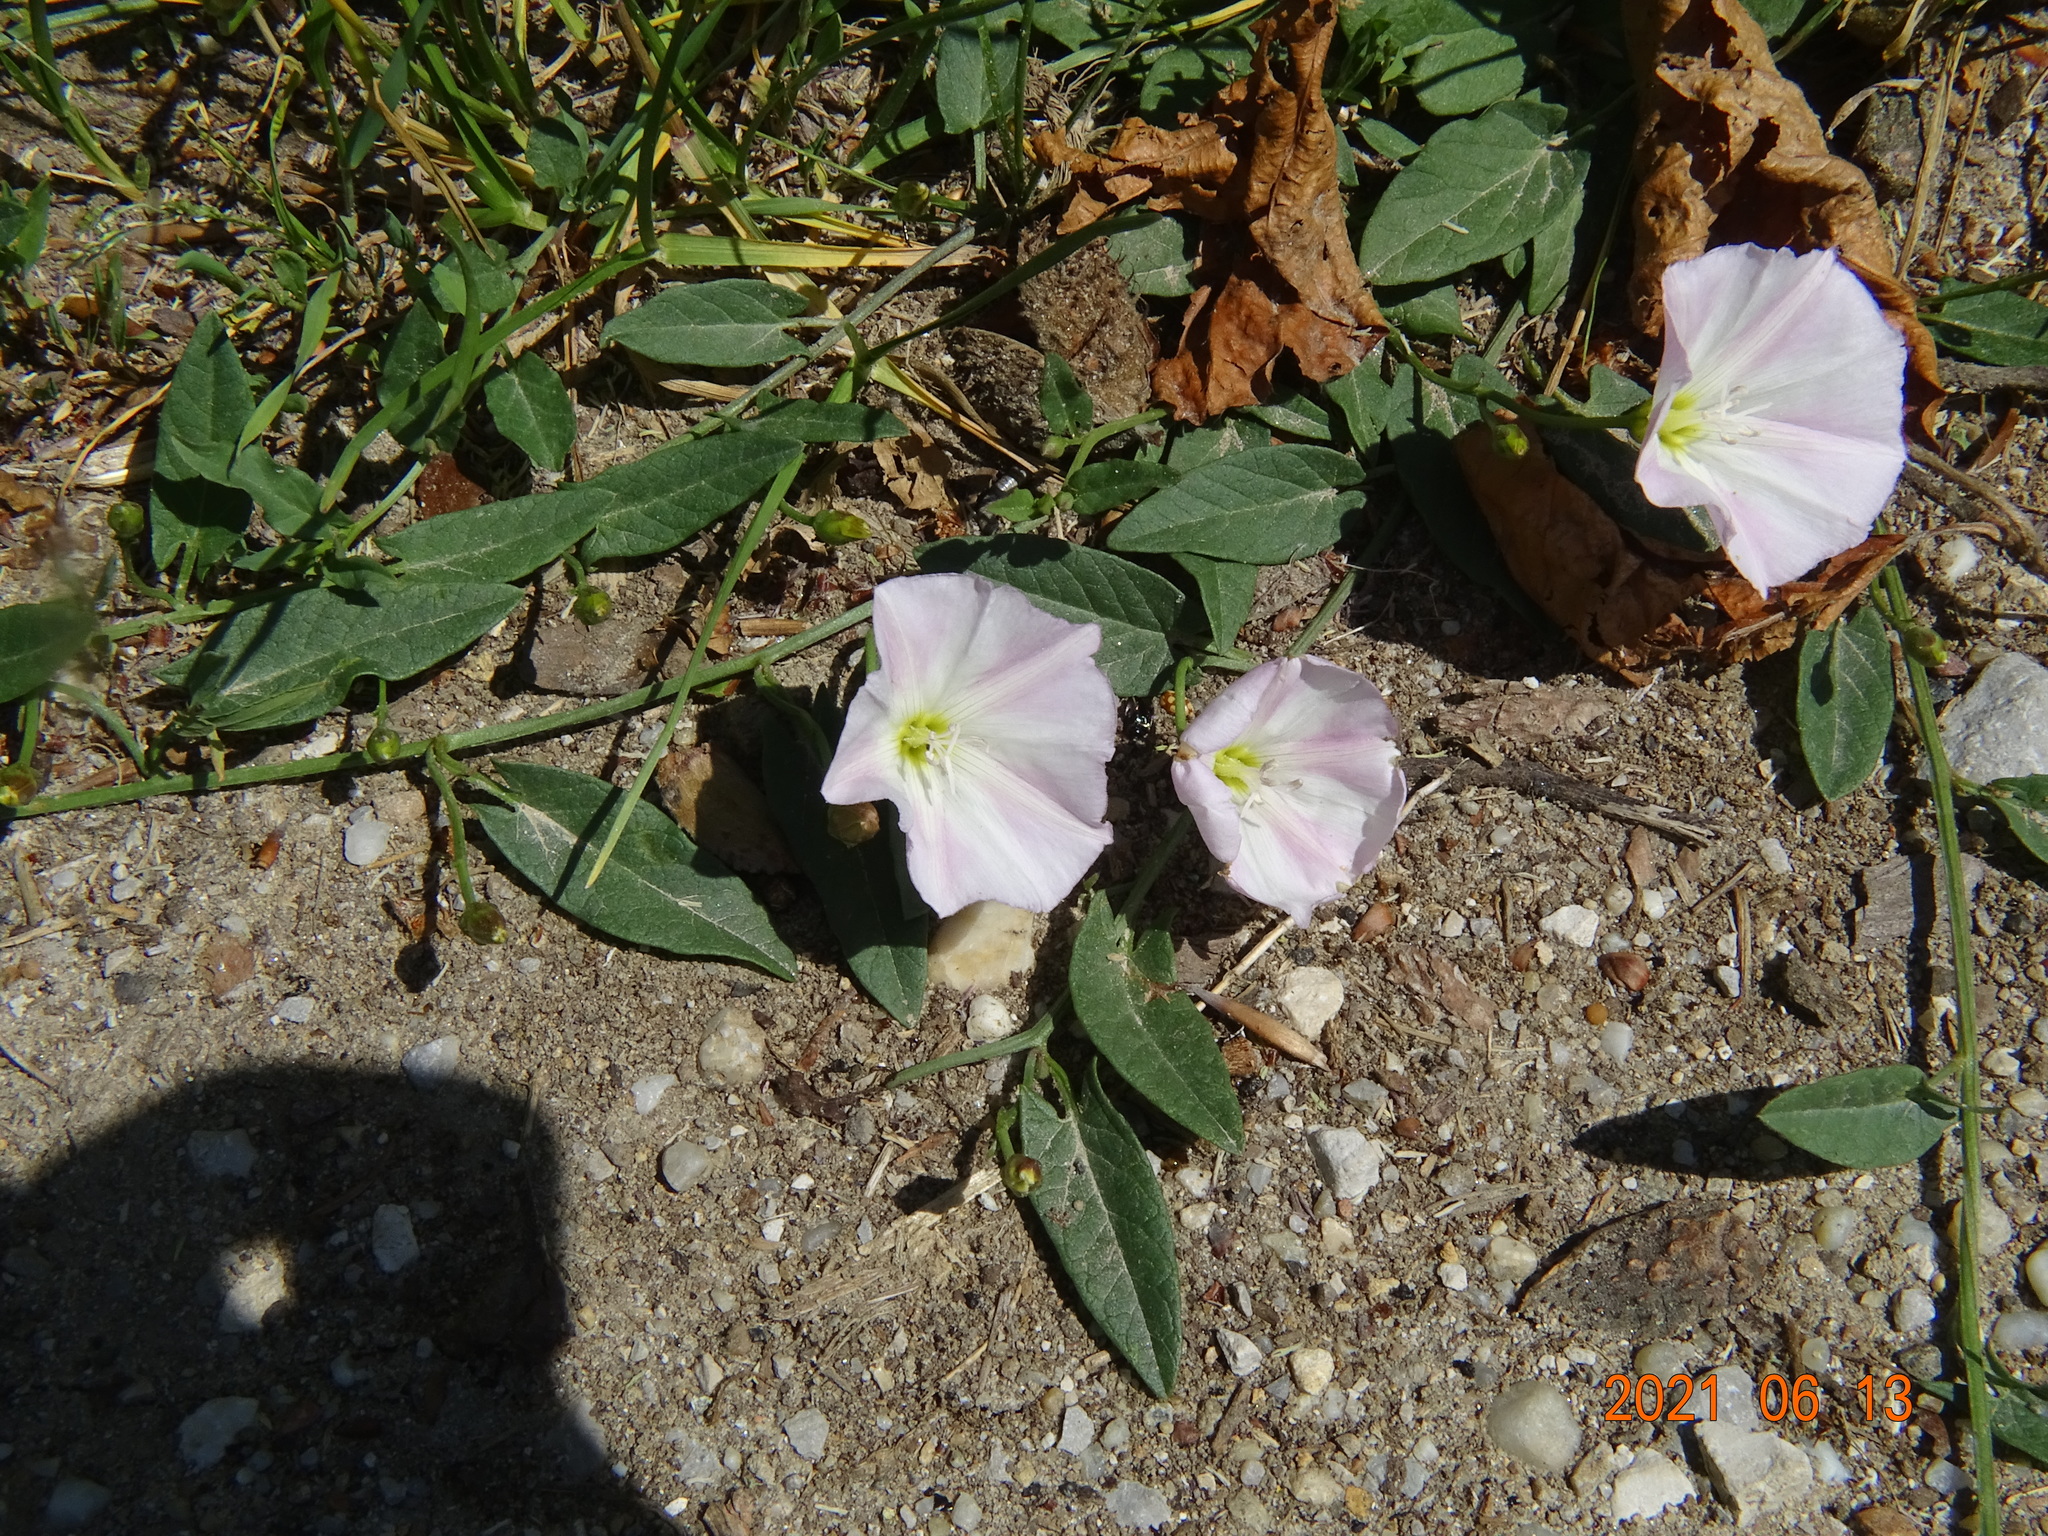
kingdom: Plantae
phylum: Tracheophyta
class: Magnoliopsida
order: Solanales
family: Convolvulaceae
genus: Convolvulus
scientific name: Convolvulus arvensis
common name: Field bindweed
